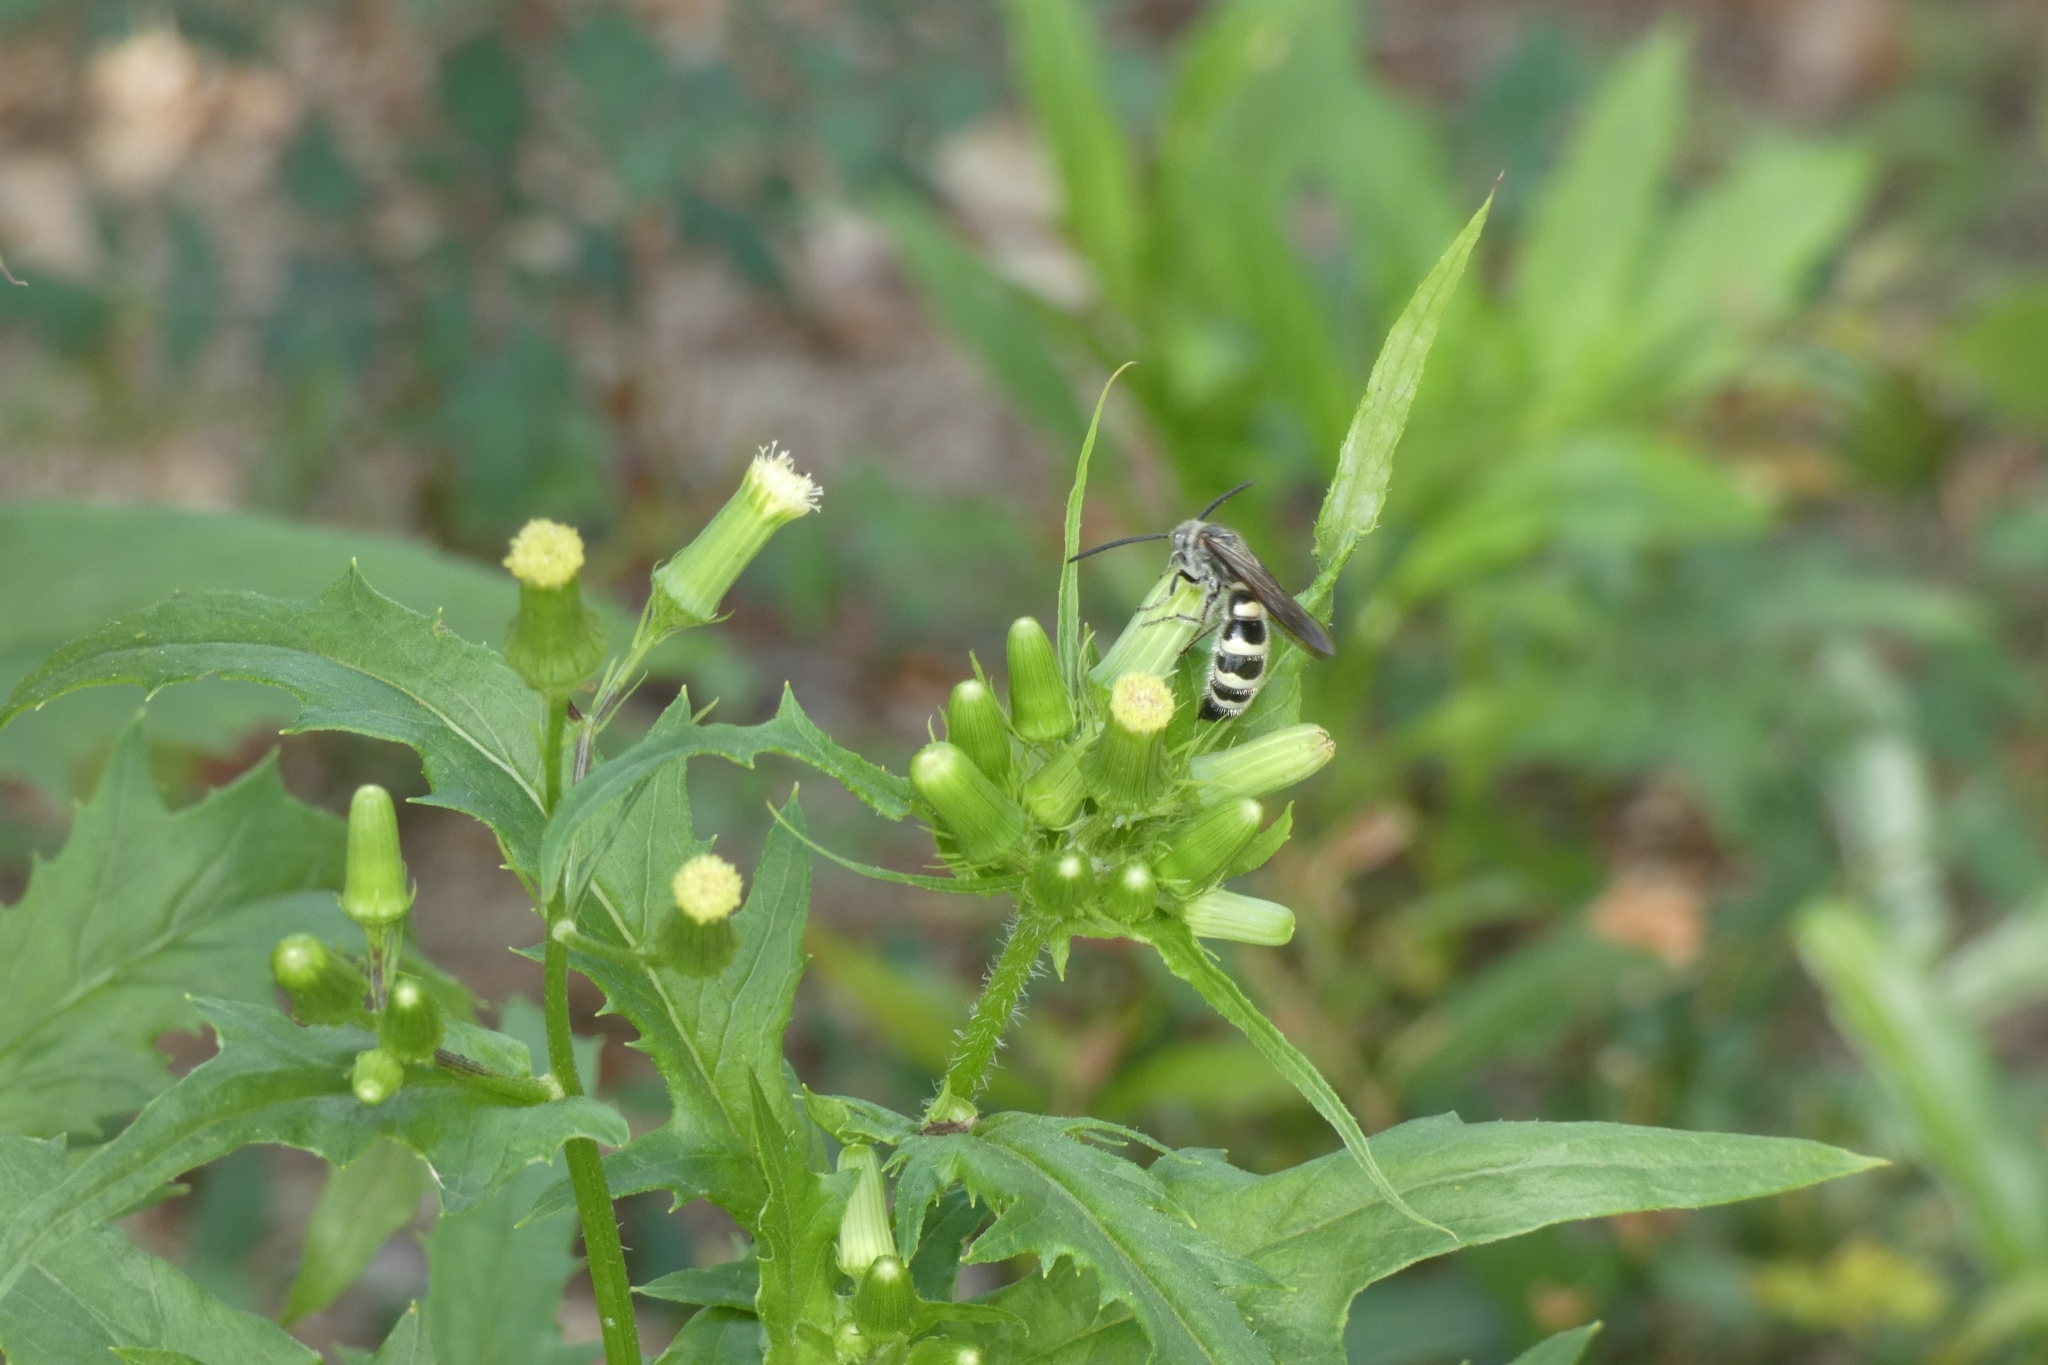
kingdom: Animalia
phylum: Arthropoda
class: Insecta
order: Hymenoptera
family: Scoliidae
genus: Dielis
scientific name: Dielis
